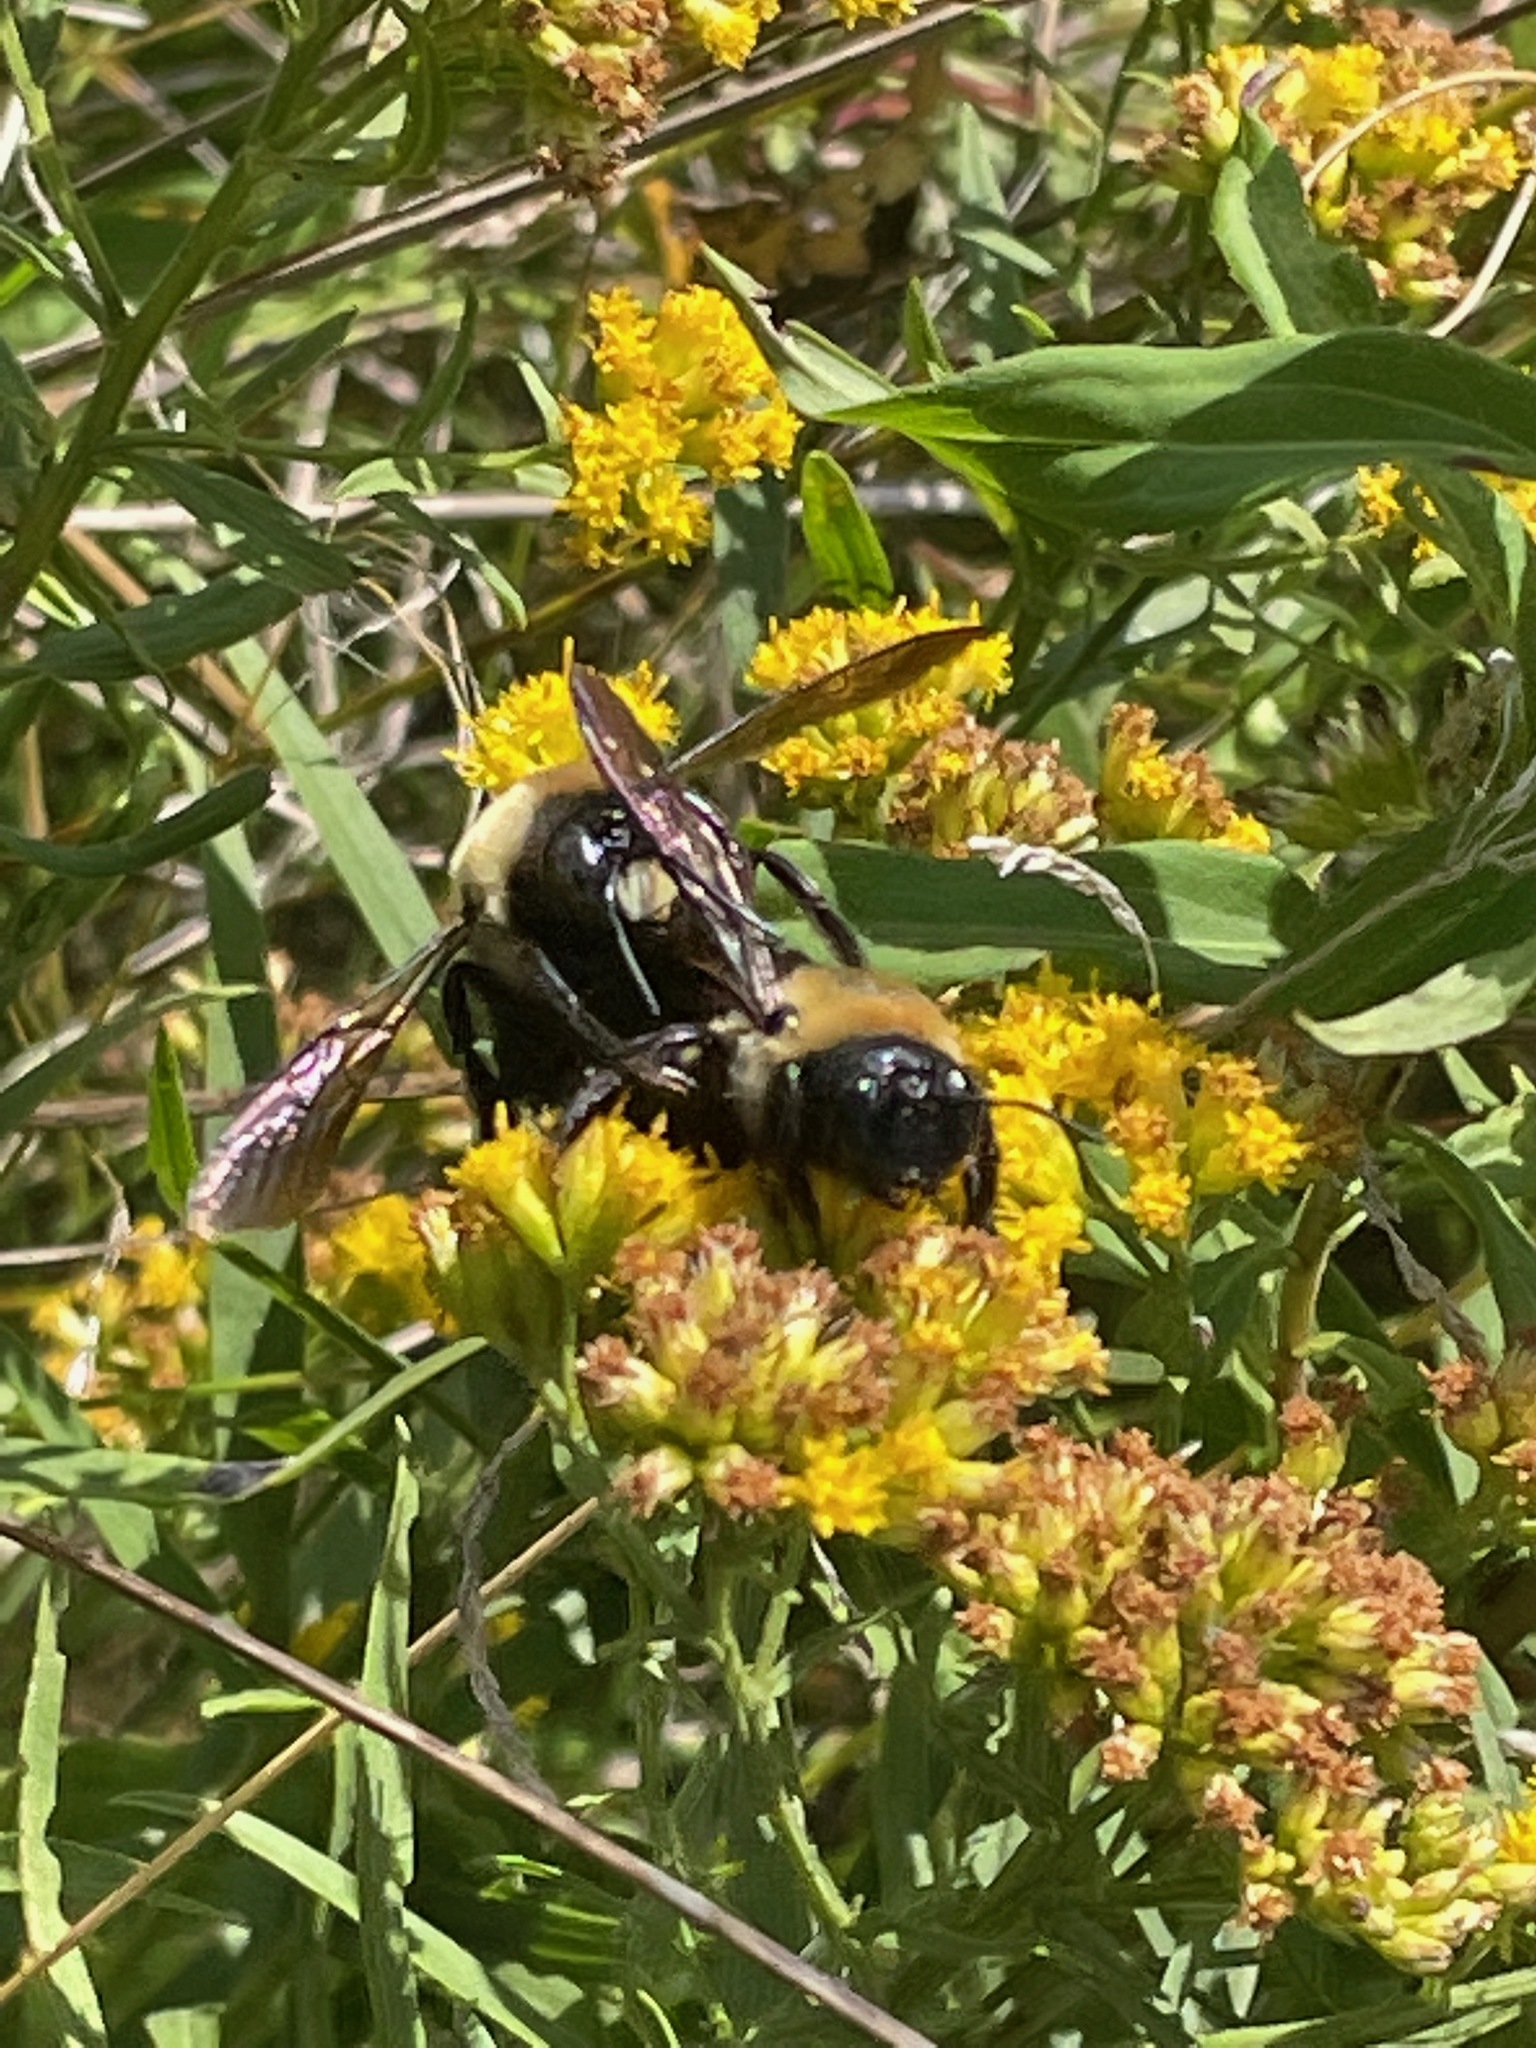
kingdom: Animalia
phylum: Arthropoda
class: Insecta
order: Hymenoptera
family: Apidae
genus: Xylocopa
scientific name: Xylocopa virginica
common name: Carpenter bee
